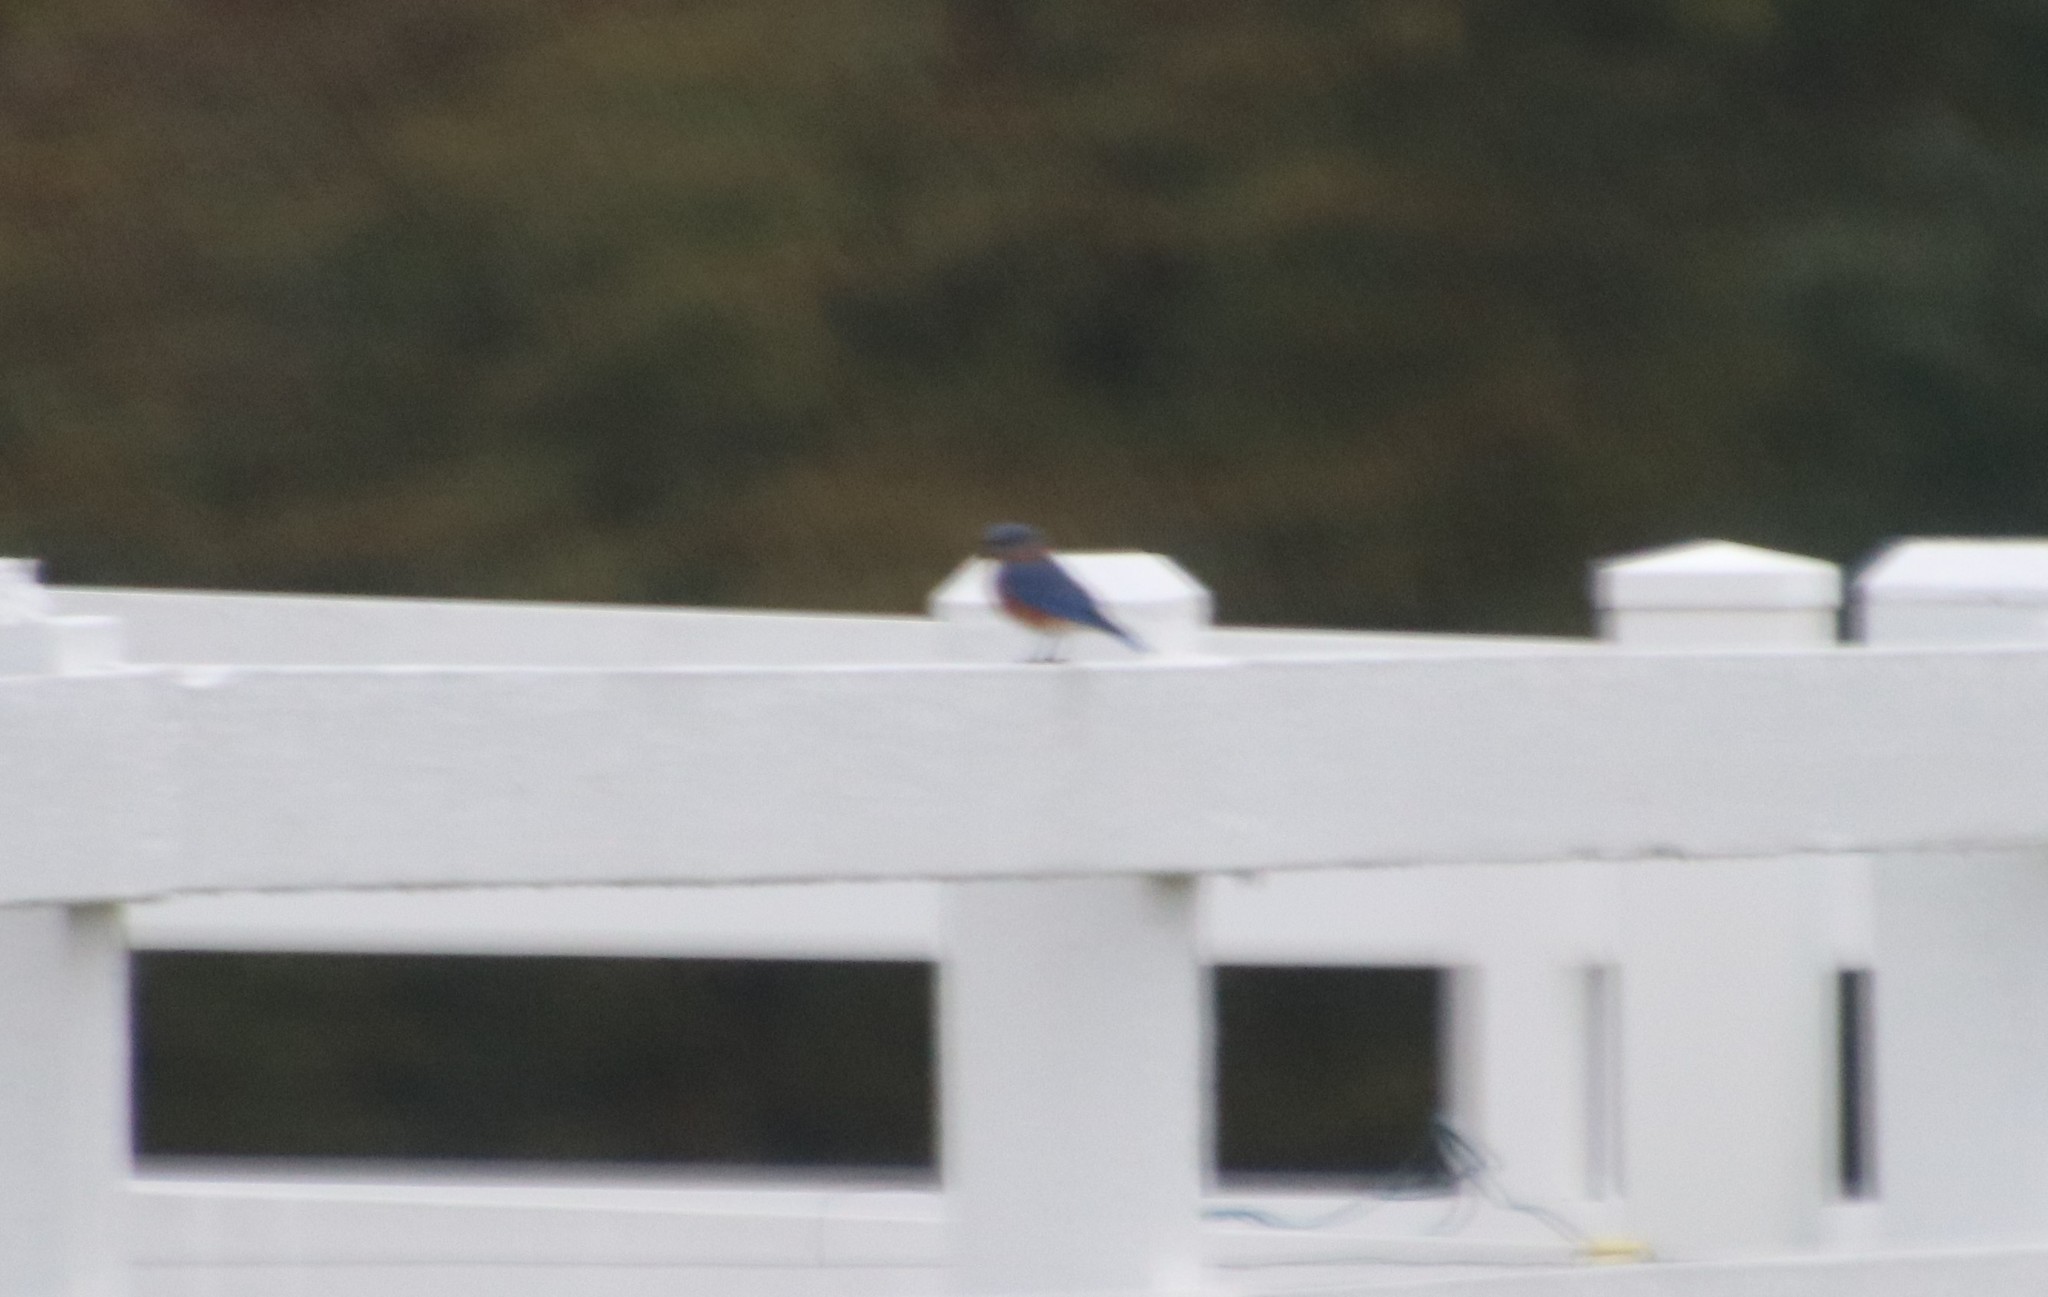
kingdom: Animalia
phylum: Chordata
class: Aves
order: Passeriformes
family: Turdidae
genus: Sialia
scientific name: Sialia sialis
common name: Eastern bluebird
